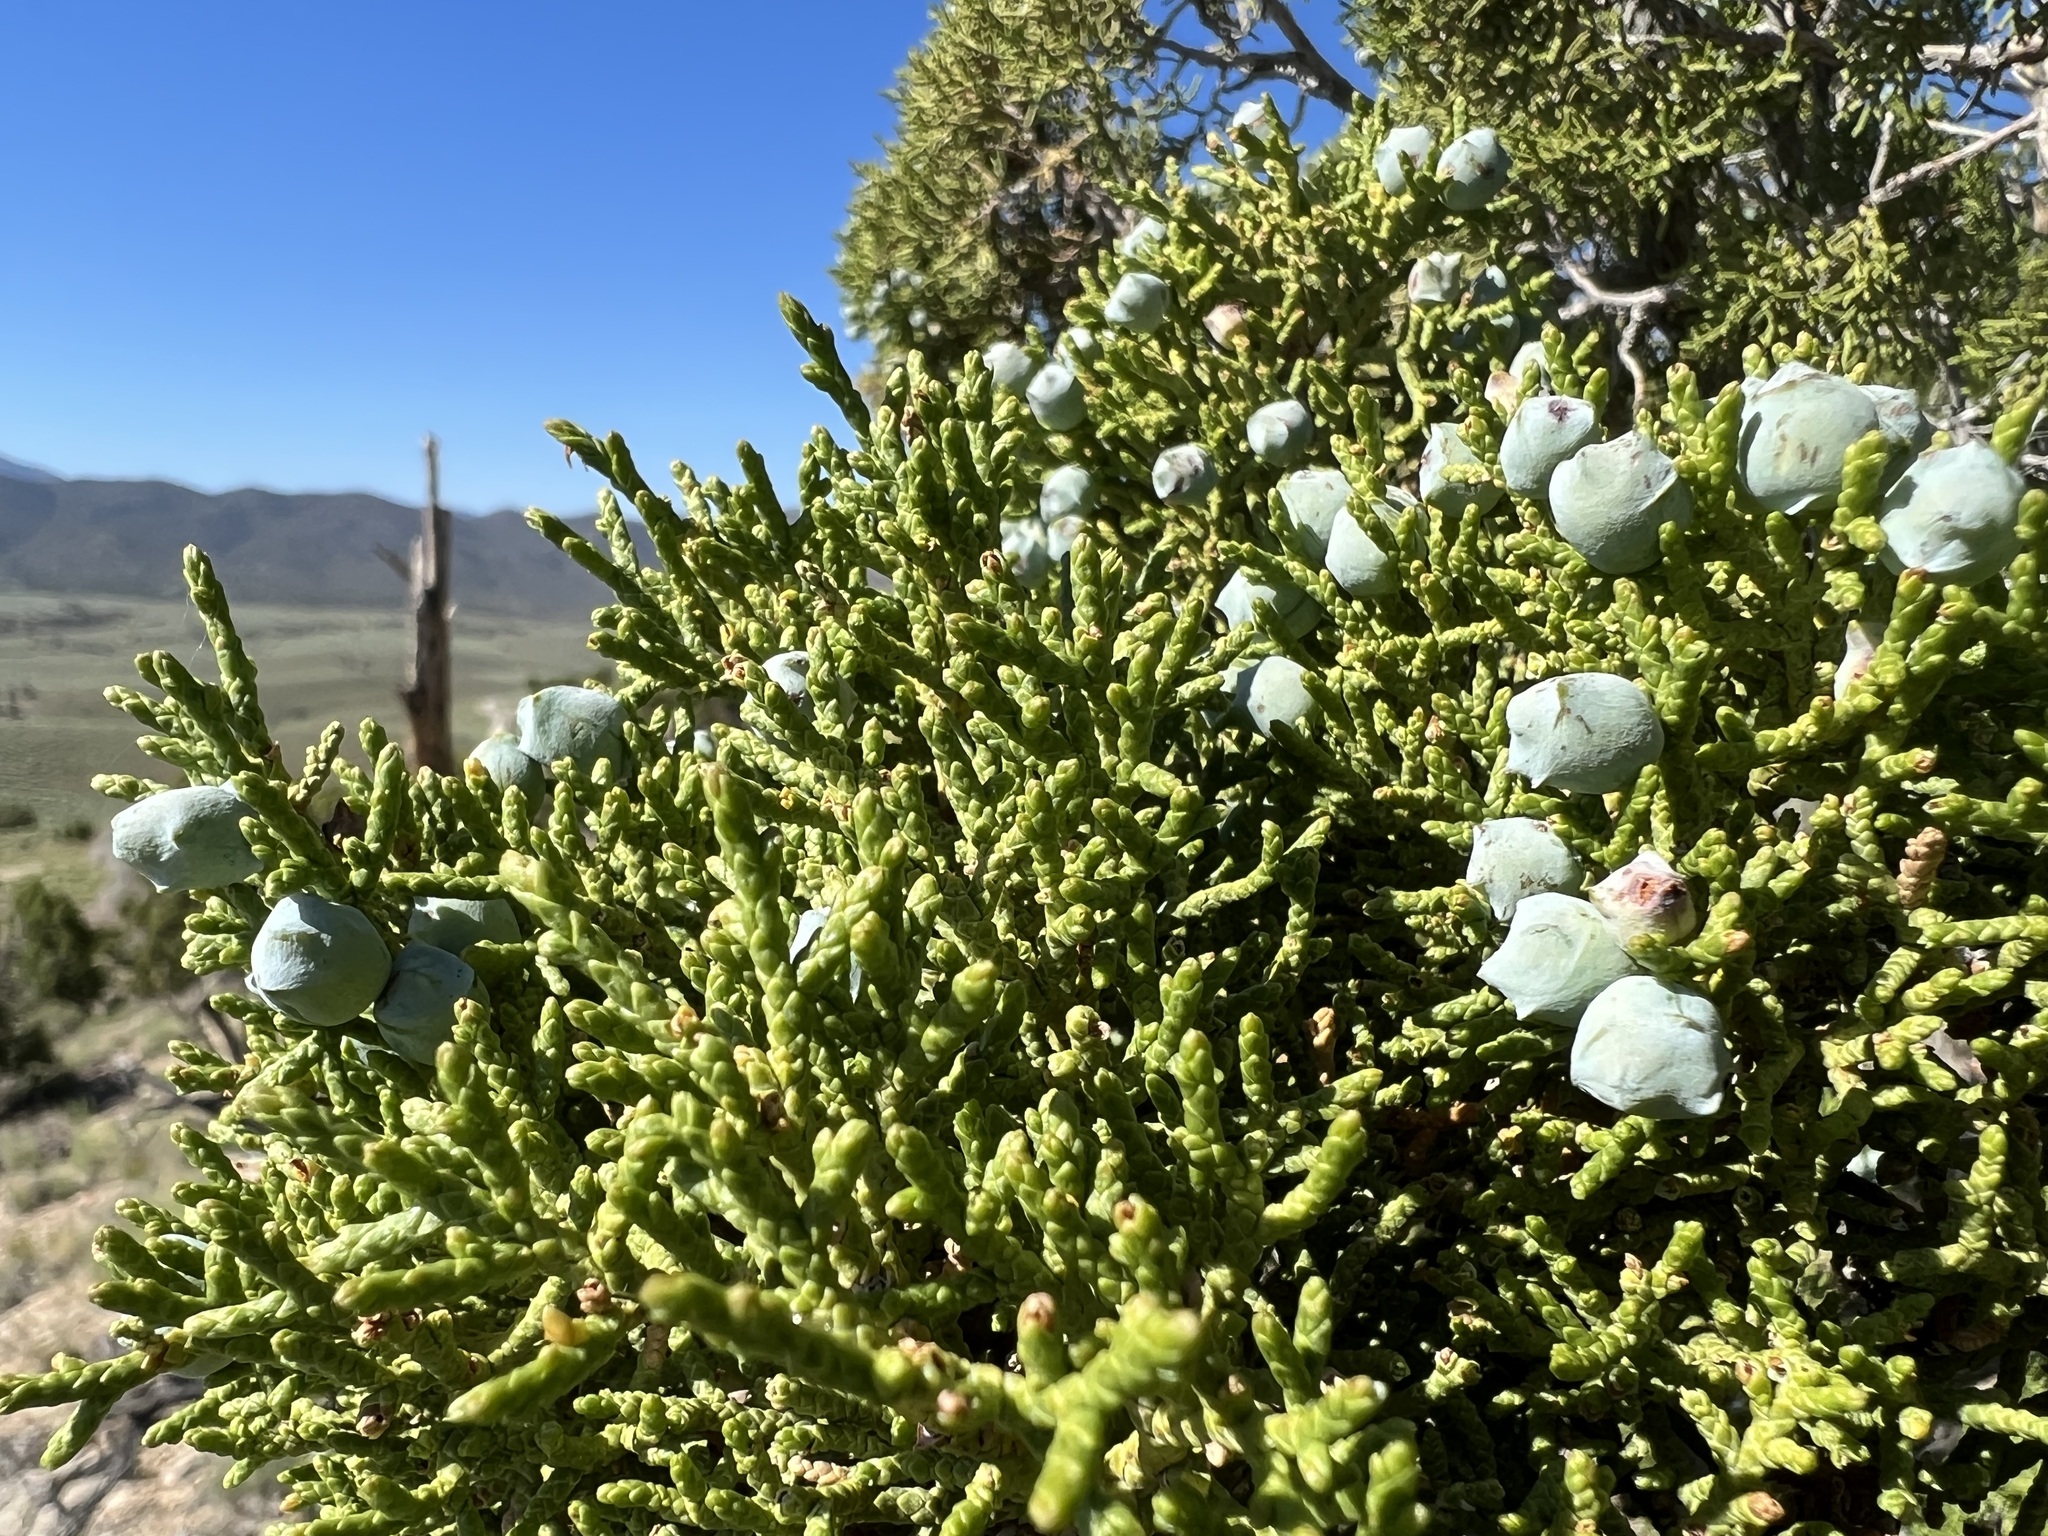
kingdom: Plantae
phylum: Tracheophyta
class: Pinopsida
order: Pinales
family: Cupressaceae
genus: Juniperus
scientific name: Juniperus osteosperma
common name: Utah juniper
